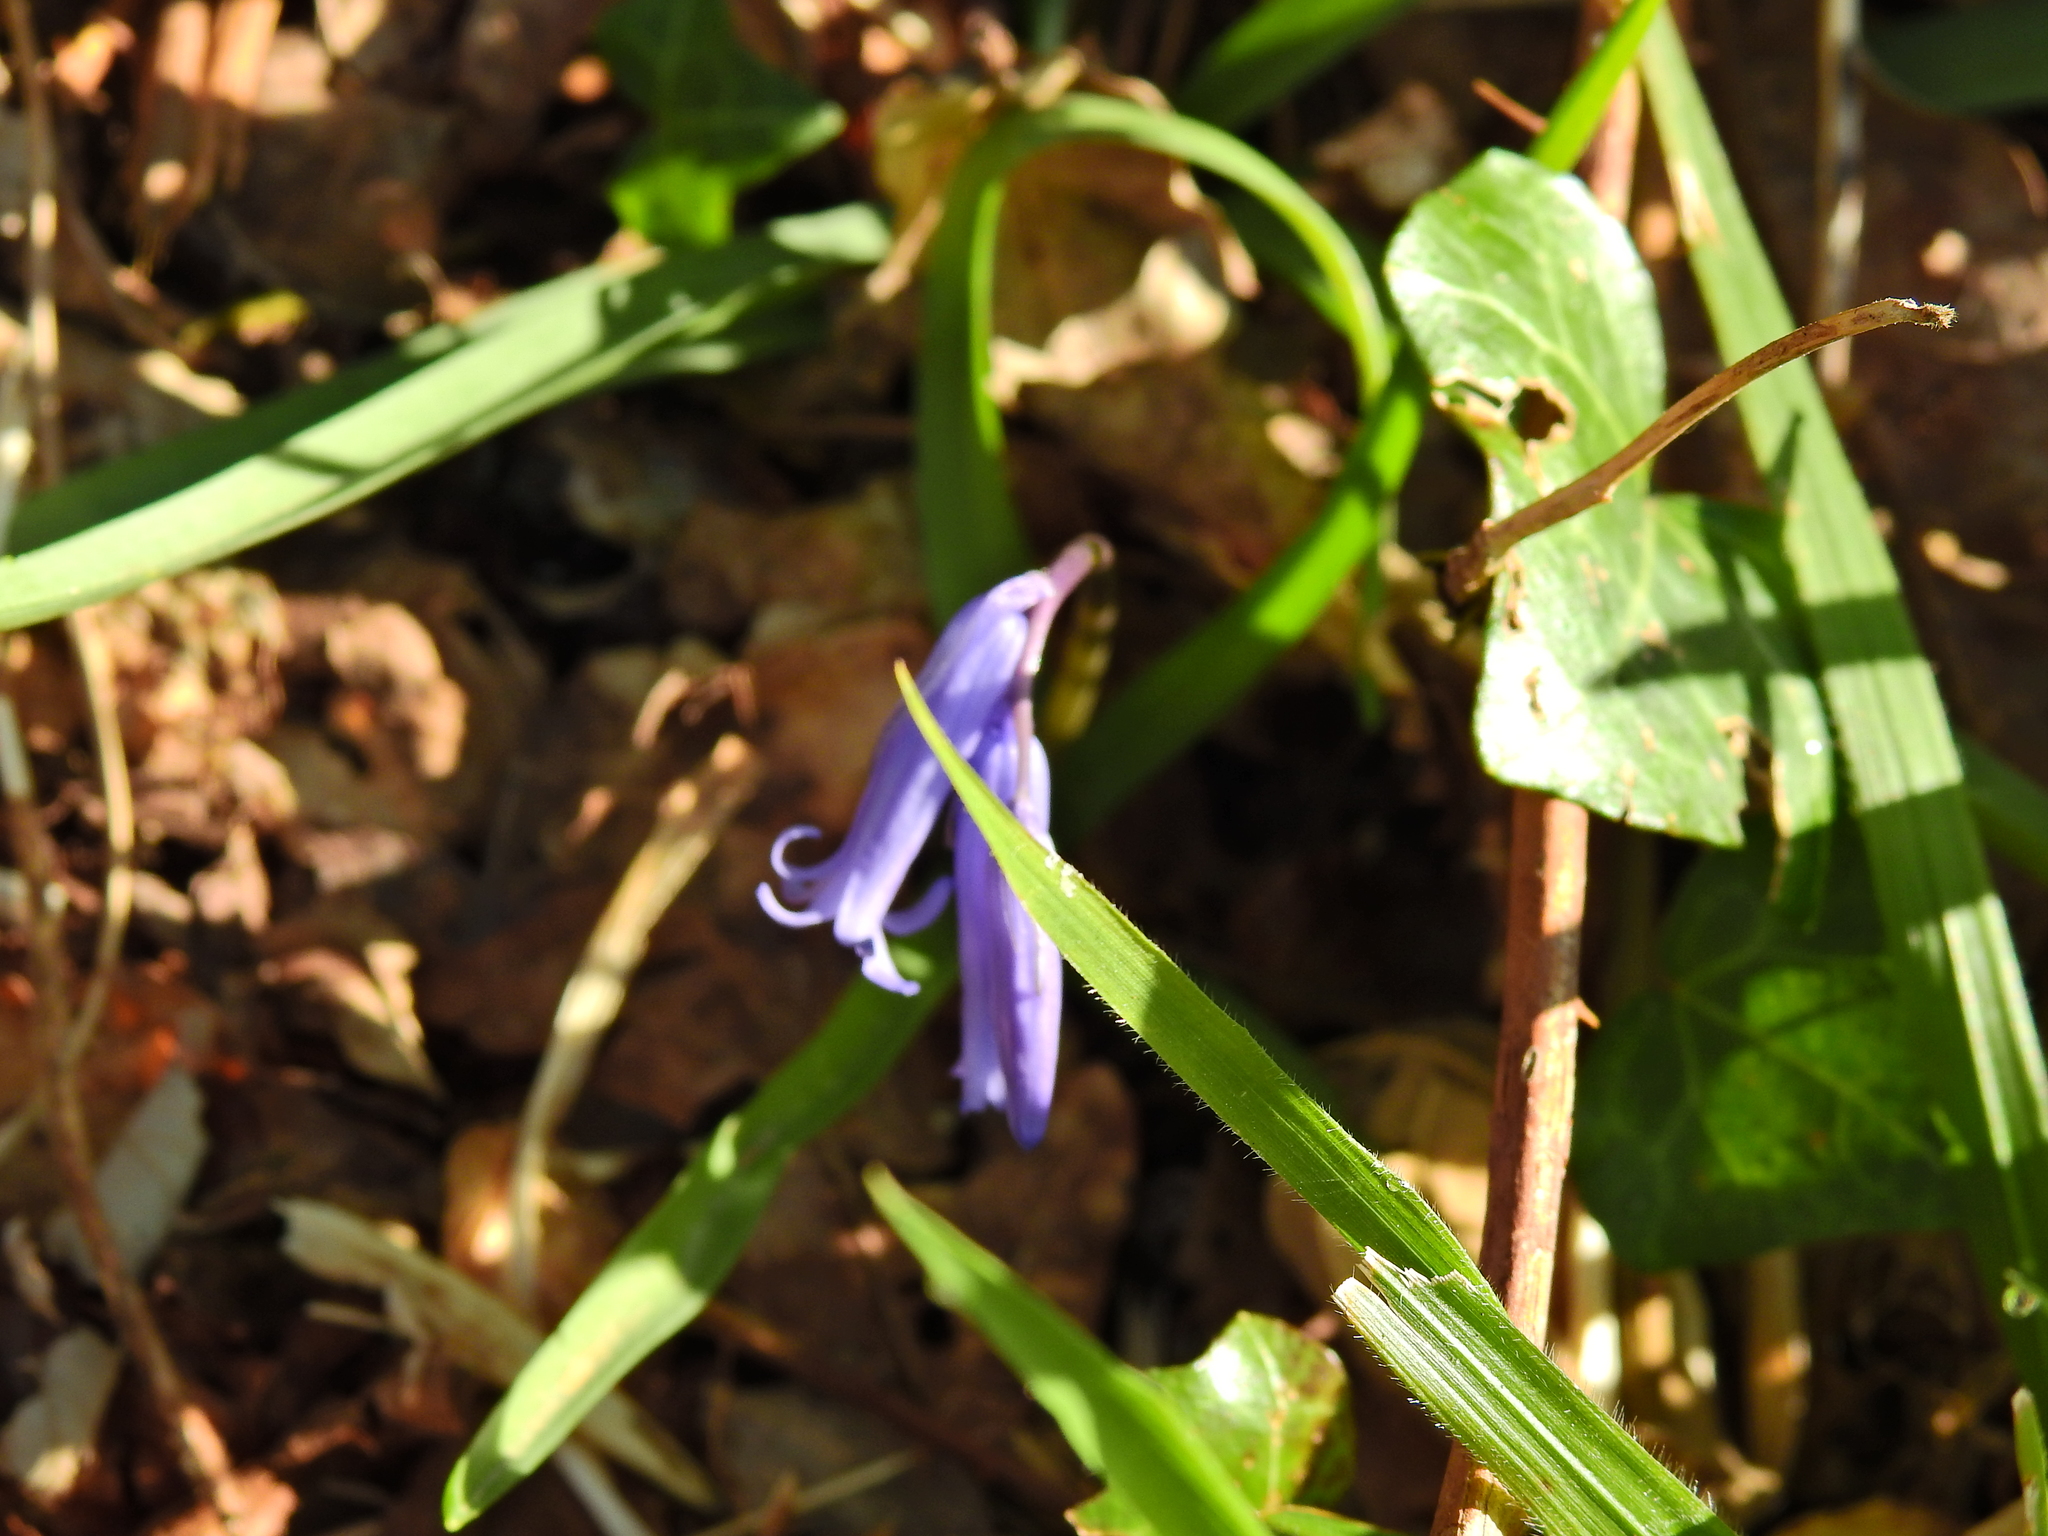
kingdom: Plantae
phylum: Tracheophyta
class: Liliopsida
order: Asparagales
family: Asparagaceae
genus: Hyacinthoides
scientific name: Hyacinthoides non-scripta
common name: Bluebell
